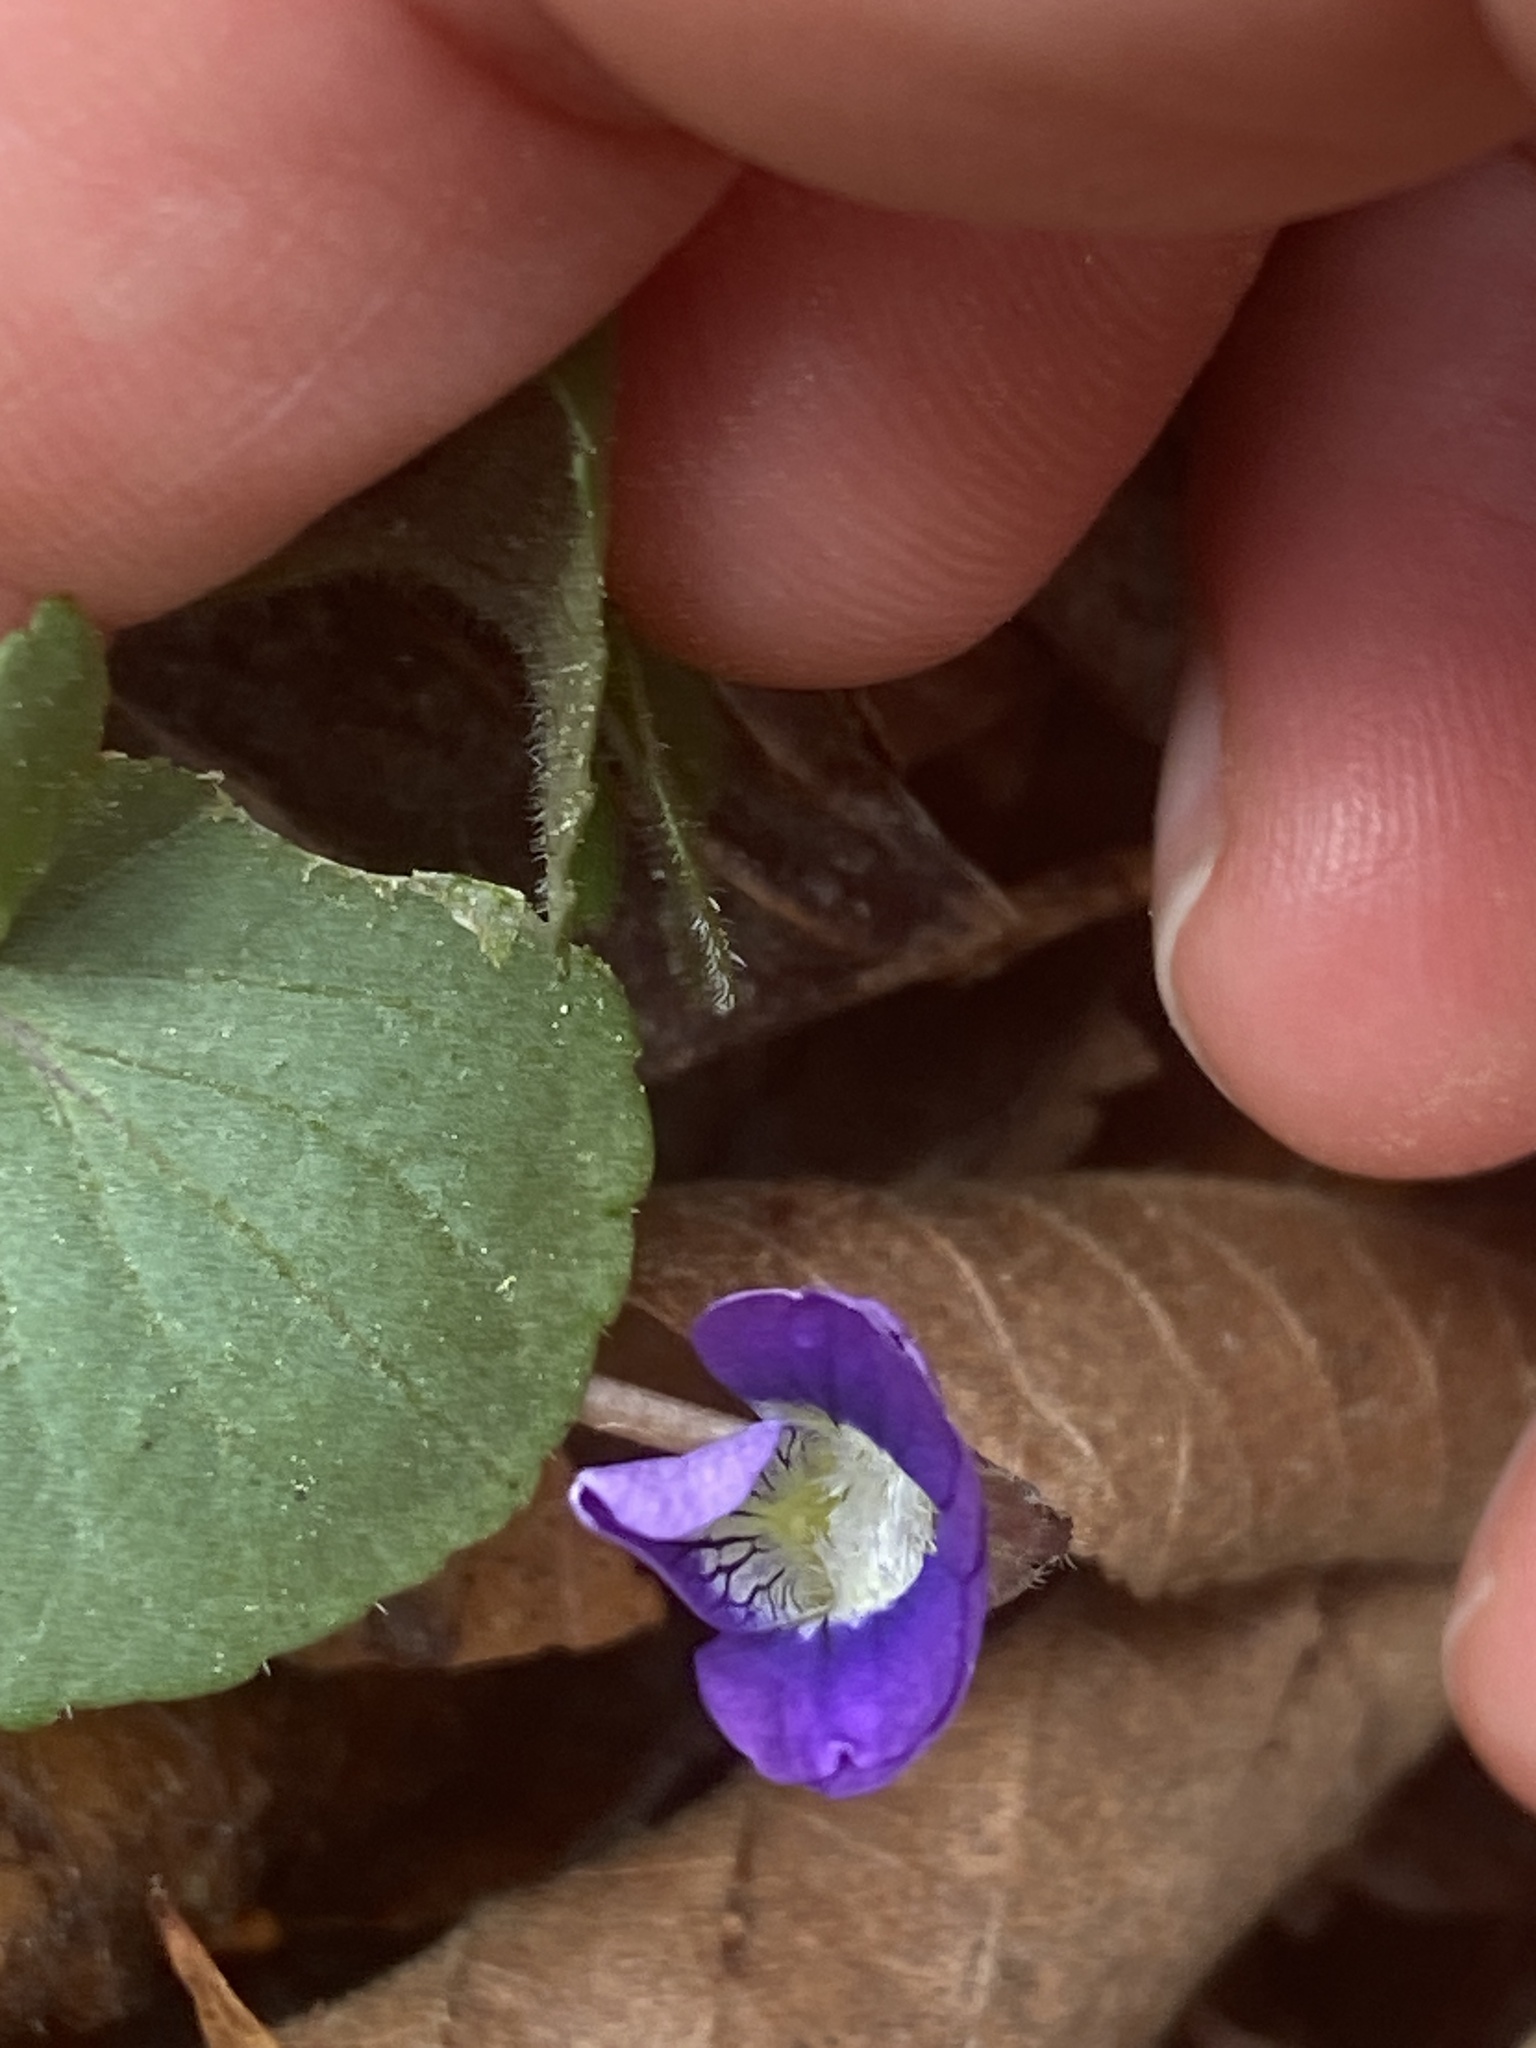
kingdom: Plantae
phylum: Tracheophyta
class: Magnoliopsida
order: Malpighiales
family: Violaceae
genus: Viola
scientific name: Viola palmata
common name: Early blue violet
